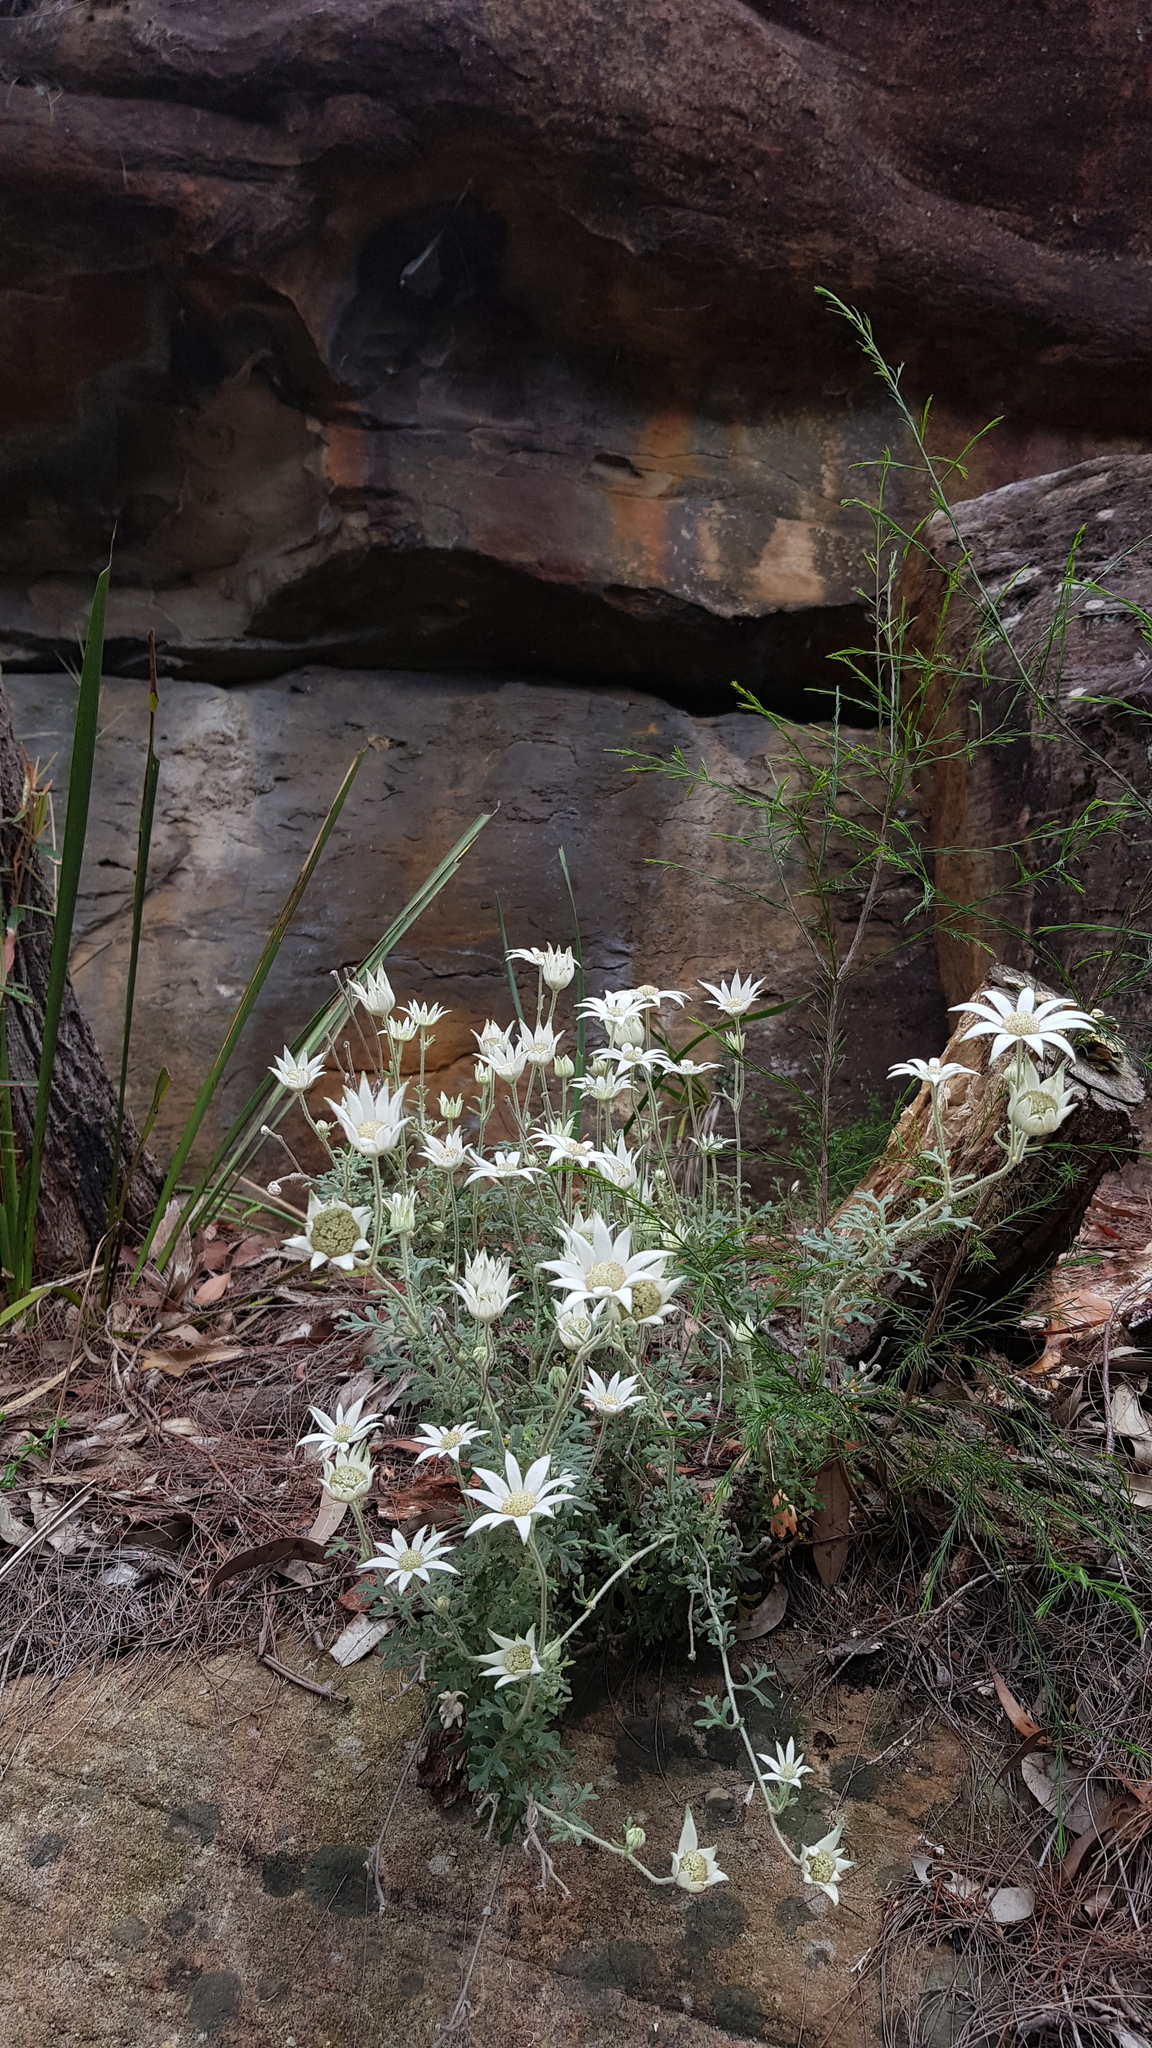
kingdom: Plantae
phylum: Tracheophyta
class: Magnoliopsida
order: Apiales
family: Apiaceae
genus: Actinotus
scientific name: Actinotus helianthi
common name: Flannel-flower
